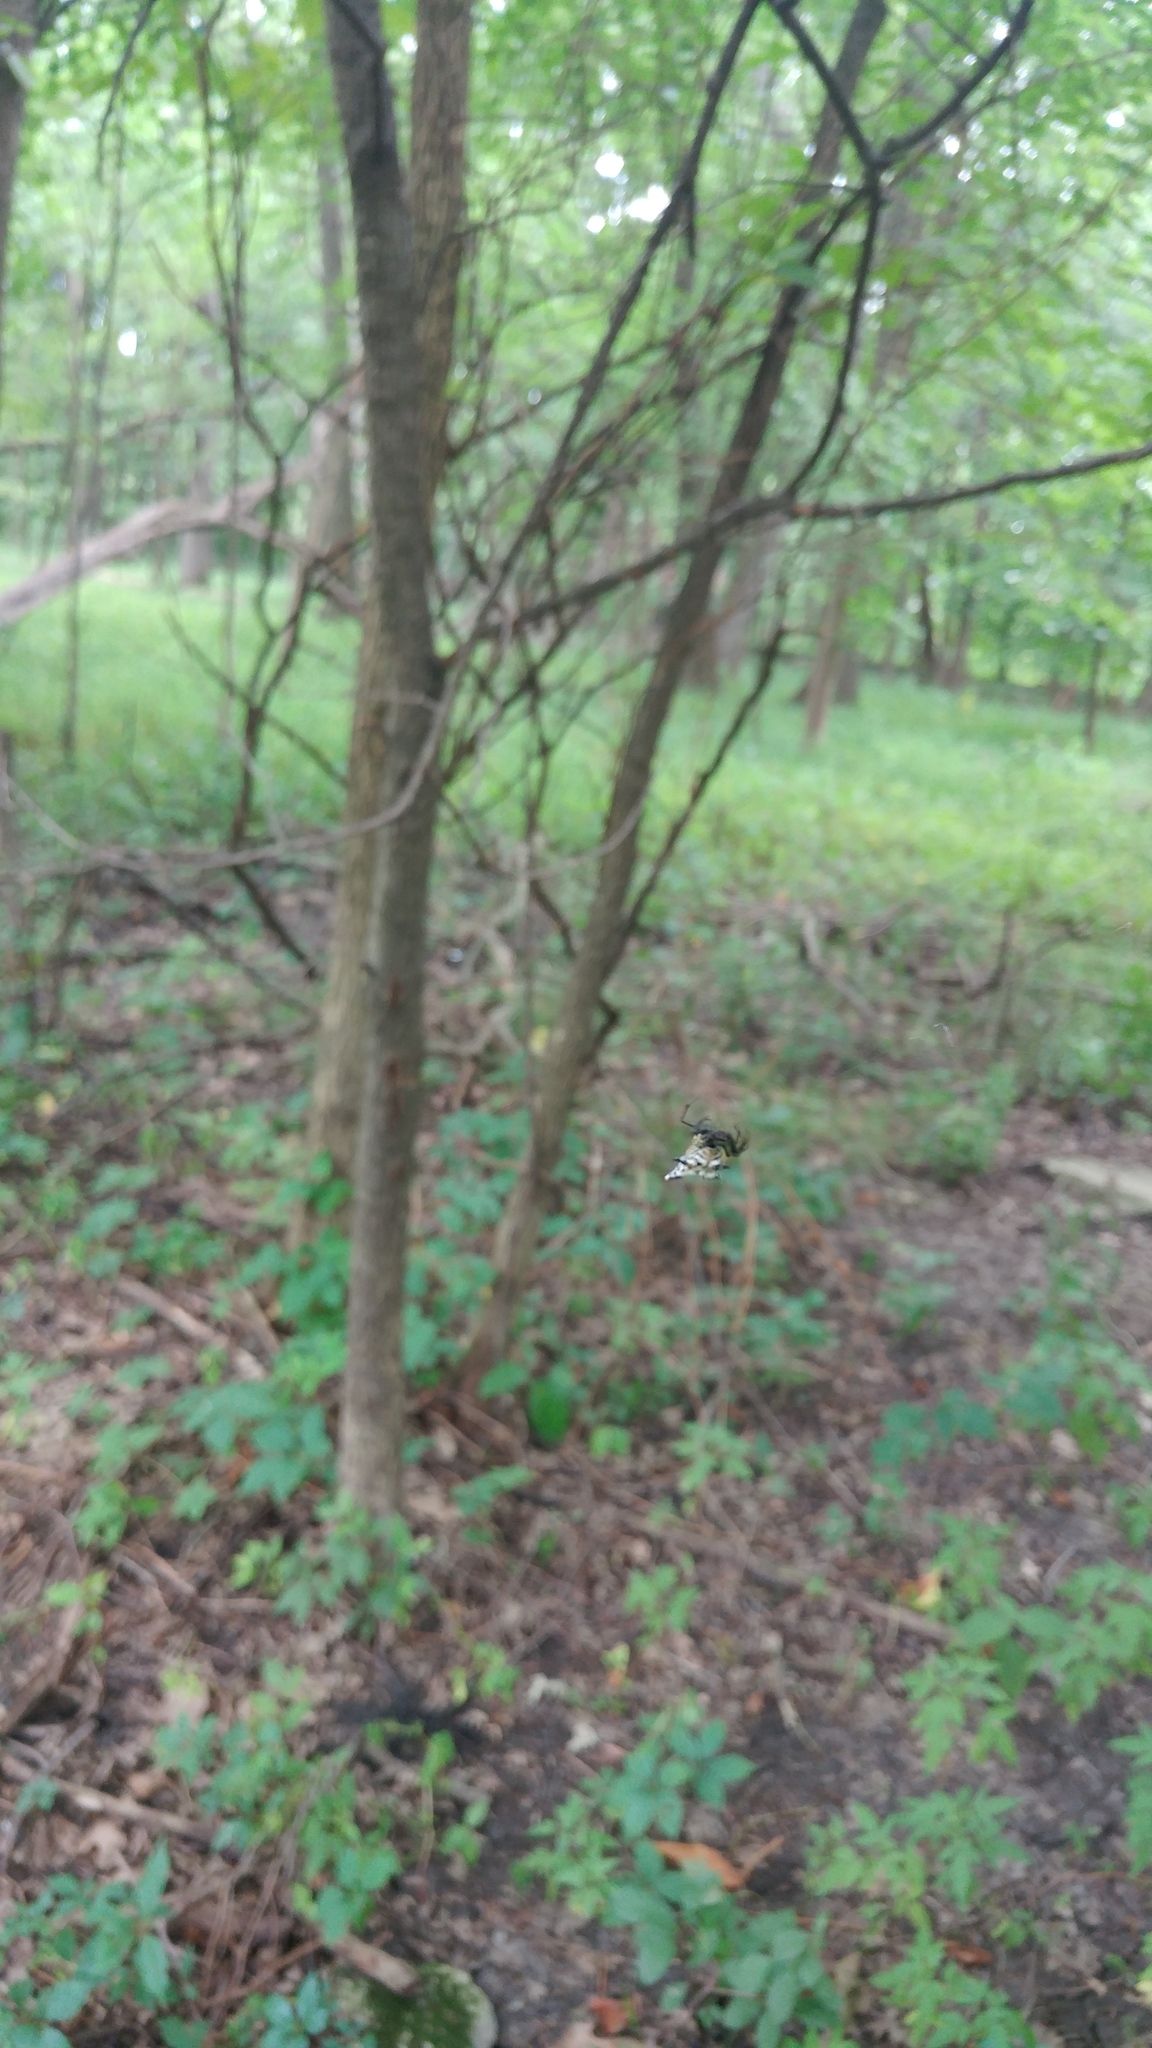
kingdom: Animalia
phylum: Arthropoda
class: Arachnida
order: Araneae
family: Araneidae
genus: Micrathena
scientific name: Micrathena gracilis
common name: Orb weavers
